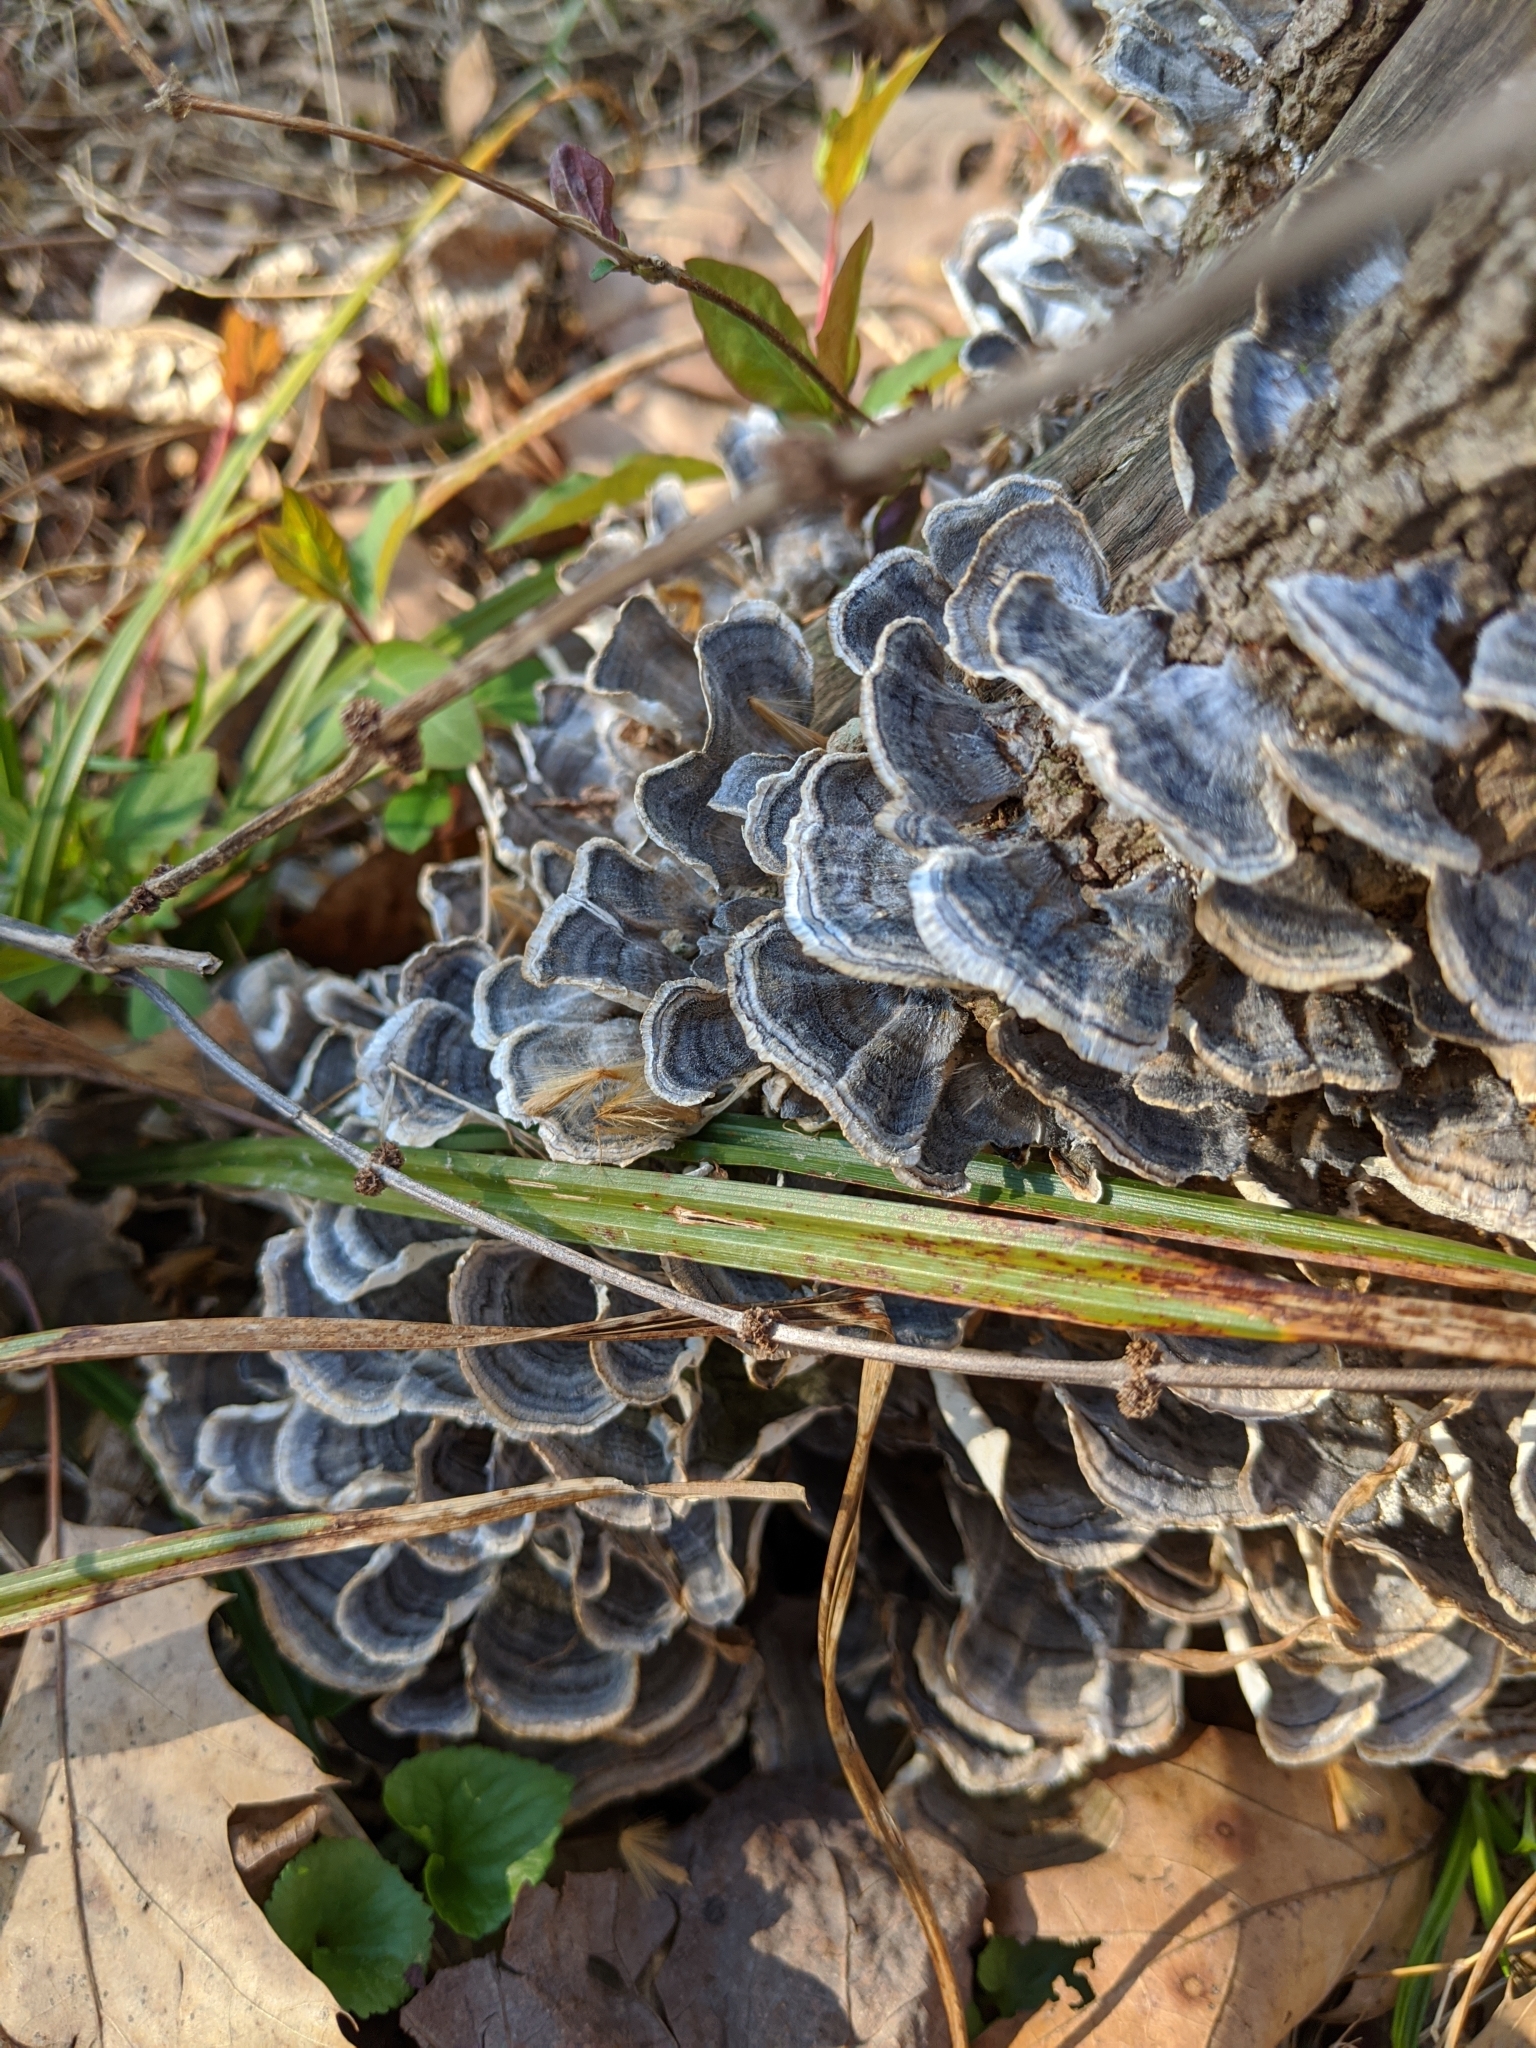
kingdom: Fungi
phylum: Basidiomycota
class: Agaricomycetes
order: Polyporales
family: Polyporaceae
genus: Trametes
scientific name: Trametes versicolor
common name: Turkeytail
